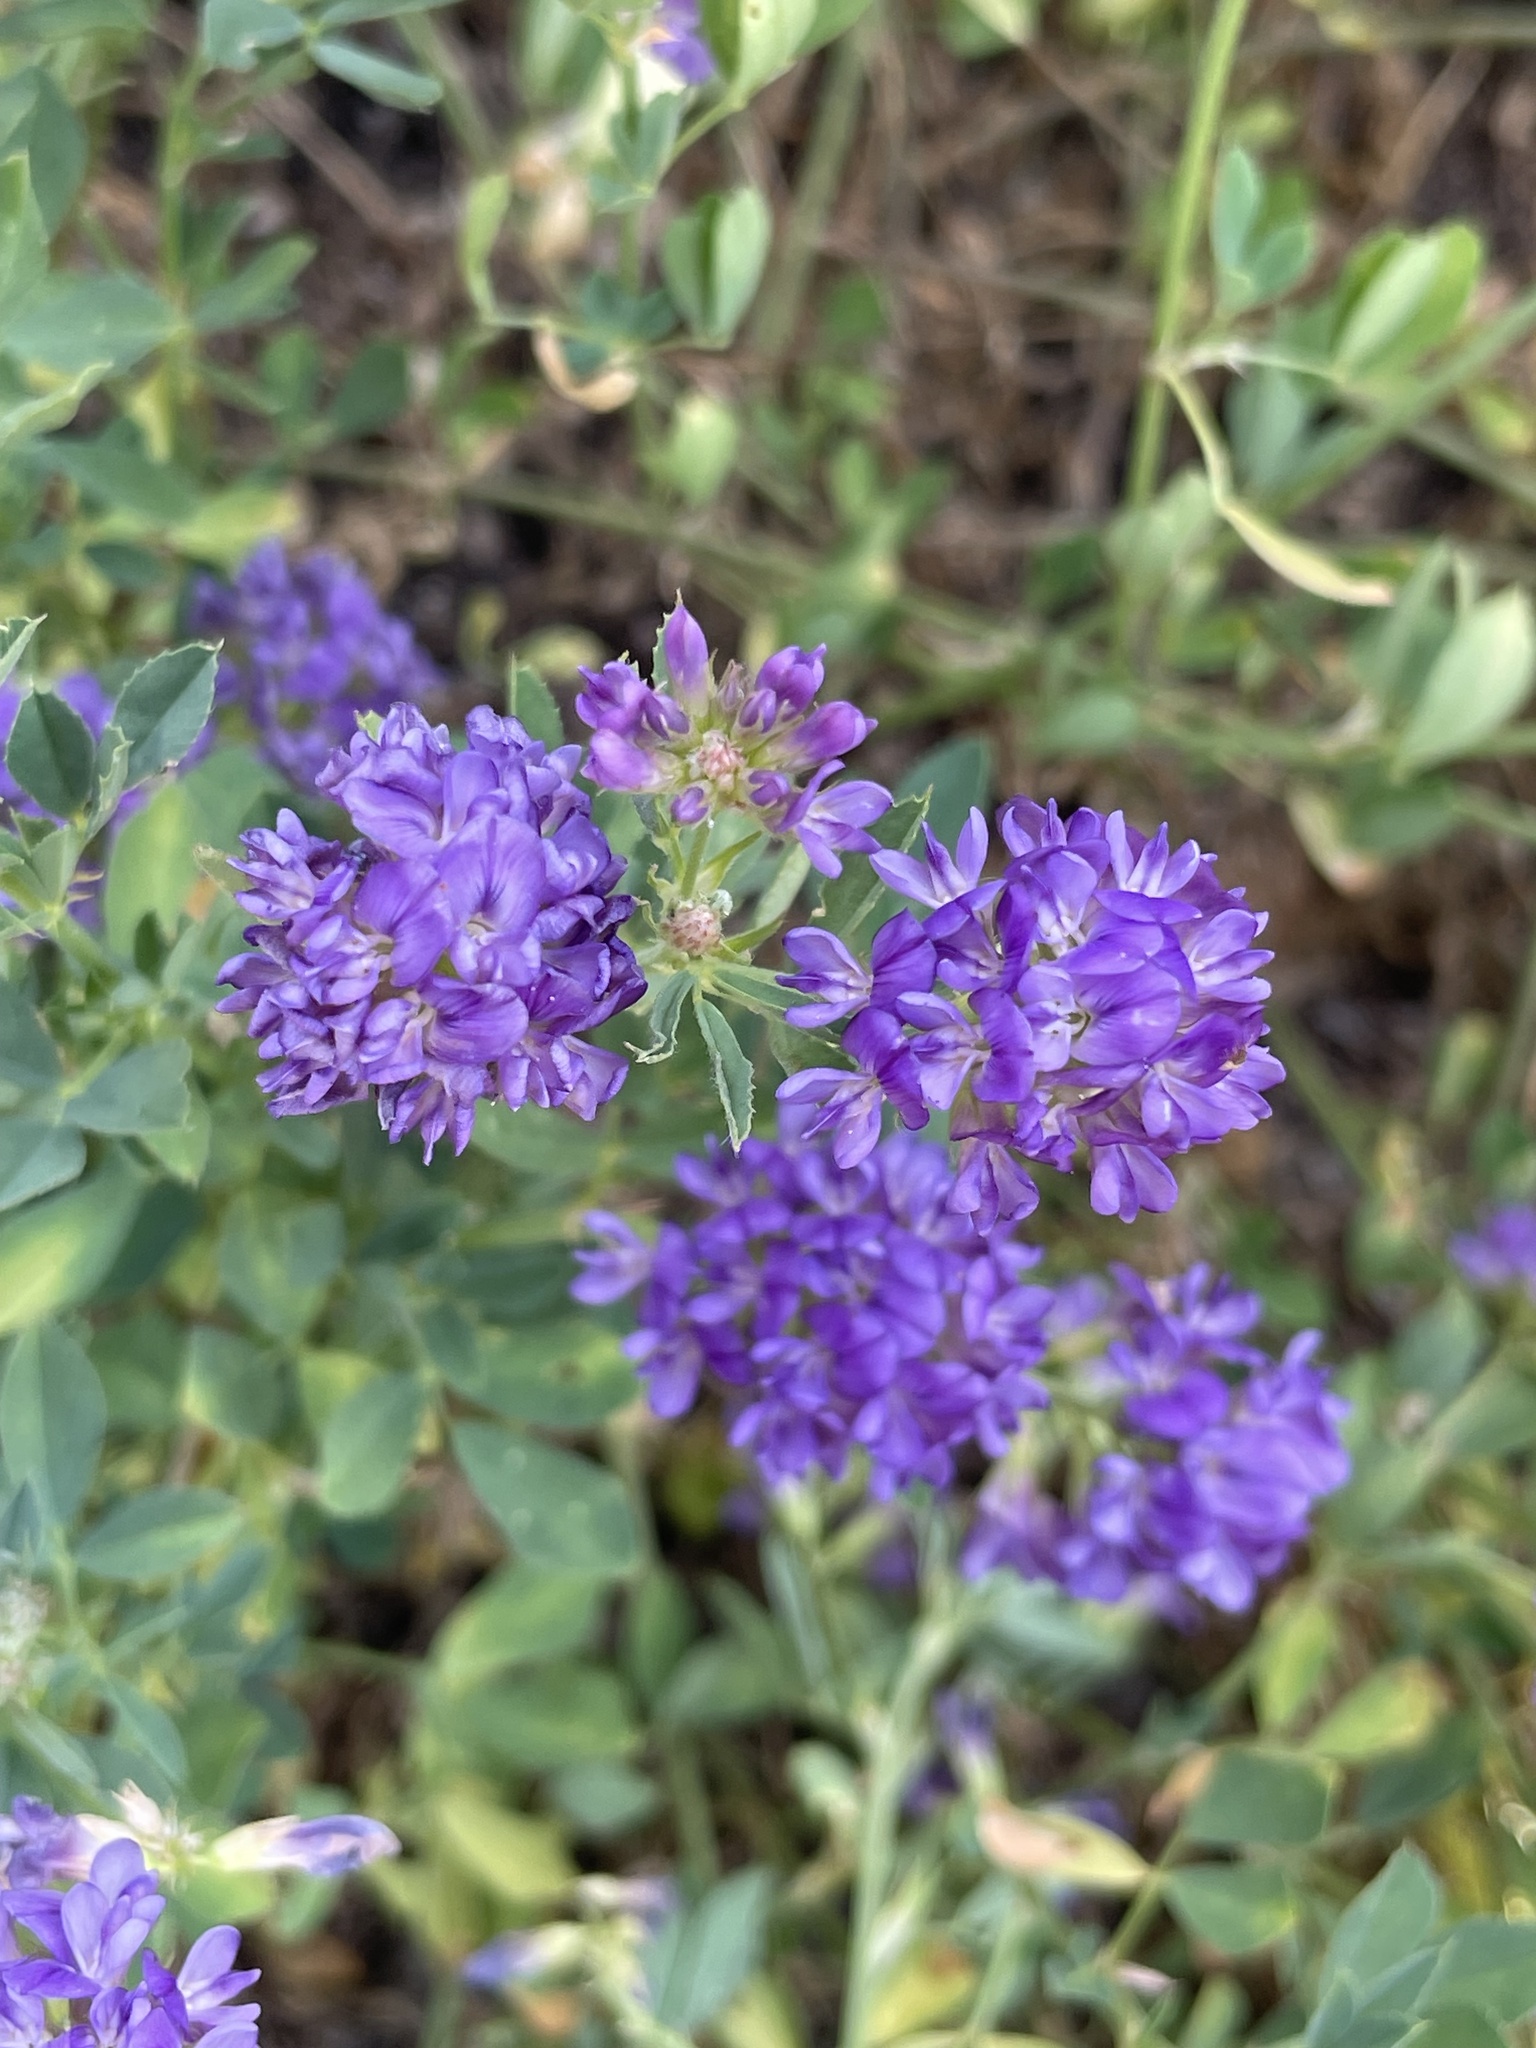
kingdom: Plantae
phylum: Tracheophyta
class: Magnoliopsida
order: Fabales
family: Fabaceae
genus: Medicago
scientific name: Medicago sativa
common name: Alfalfa
